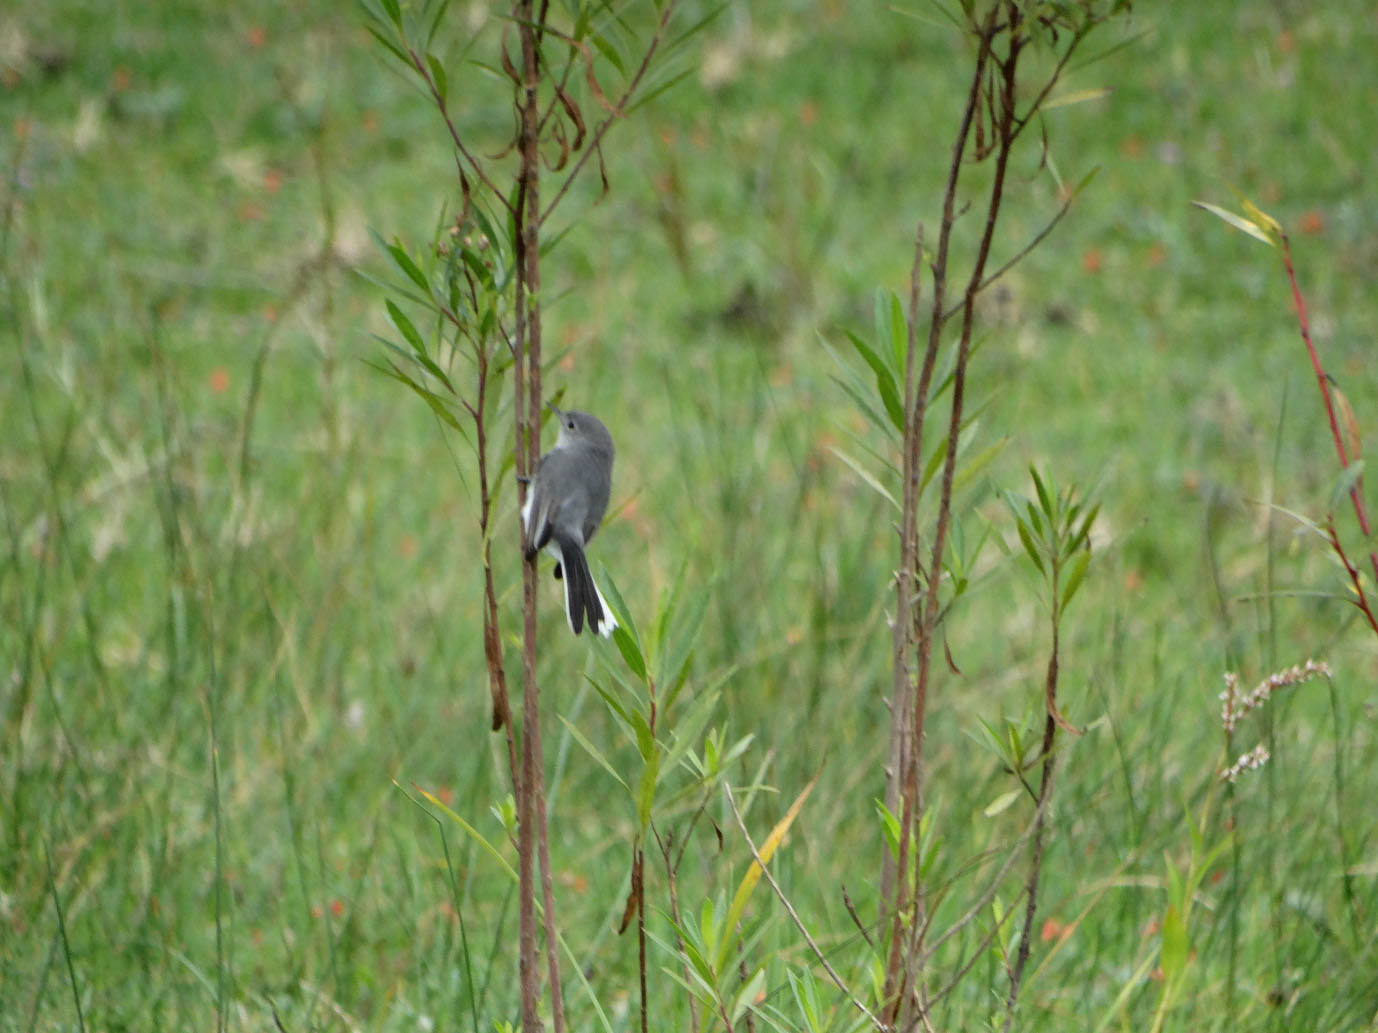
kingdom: Animalia
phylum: Chordata
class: Aves
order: Passeriformes
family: Polioptilidae
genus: Polioptila
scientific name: Polioptila caerulea
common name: Blue-gray gnatcatcher
